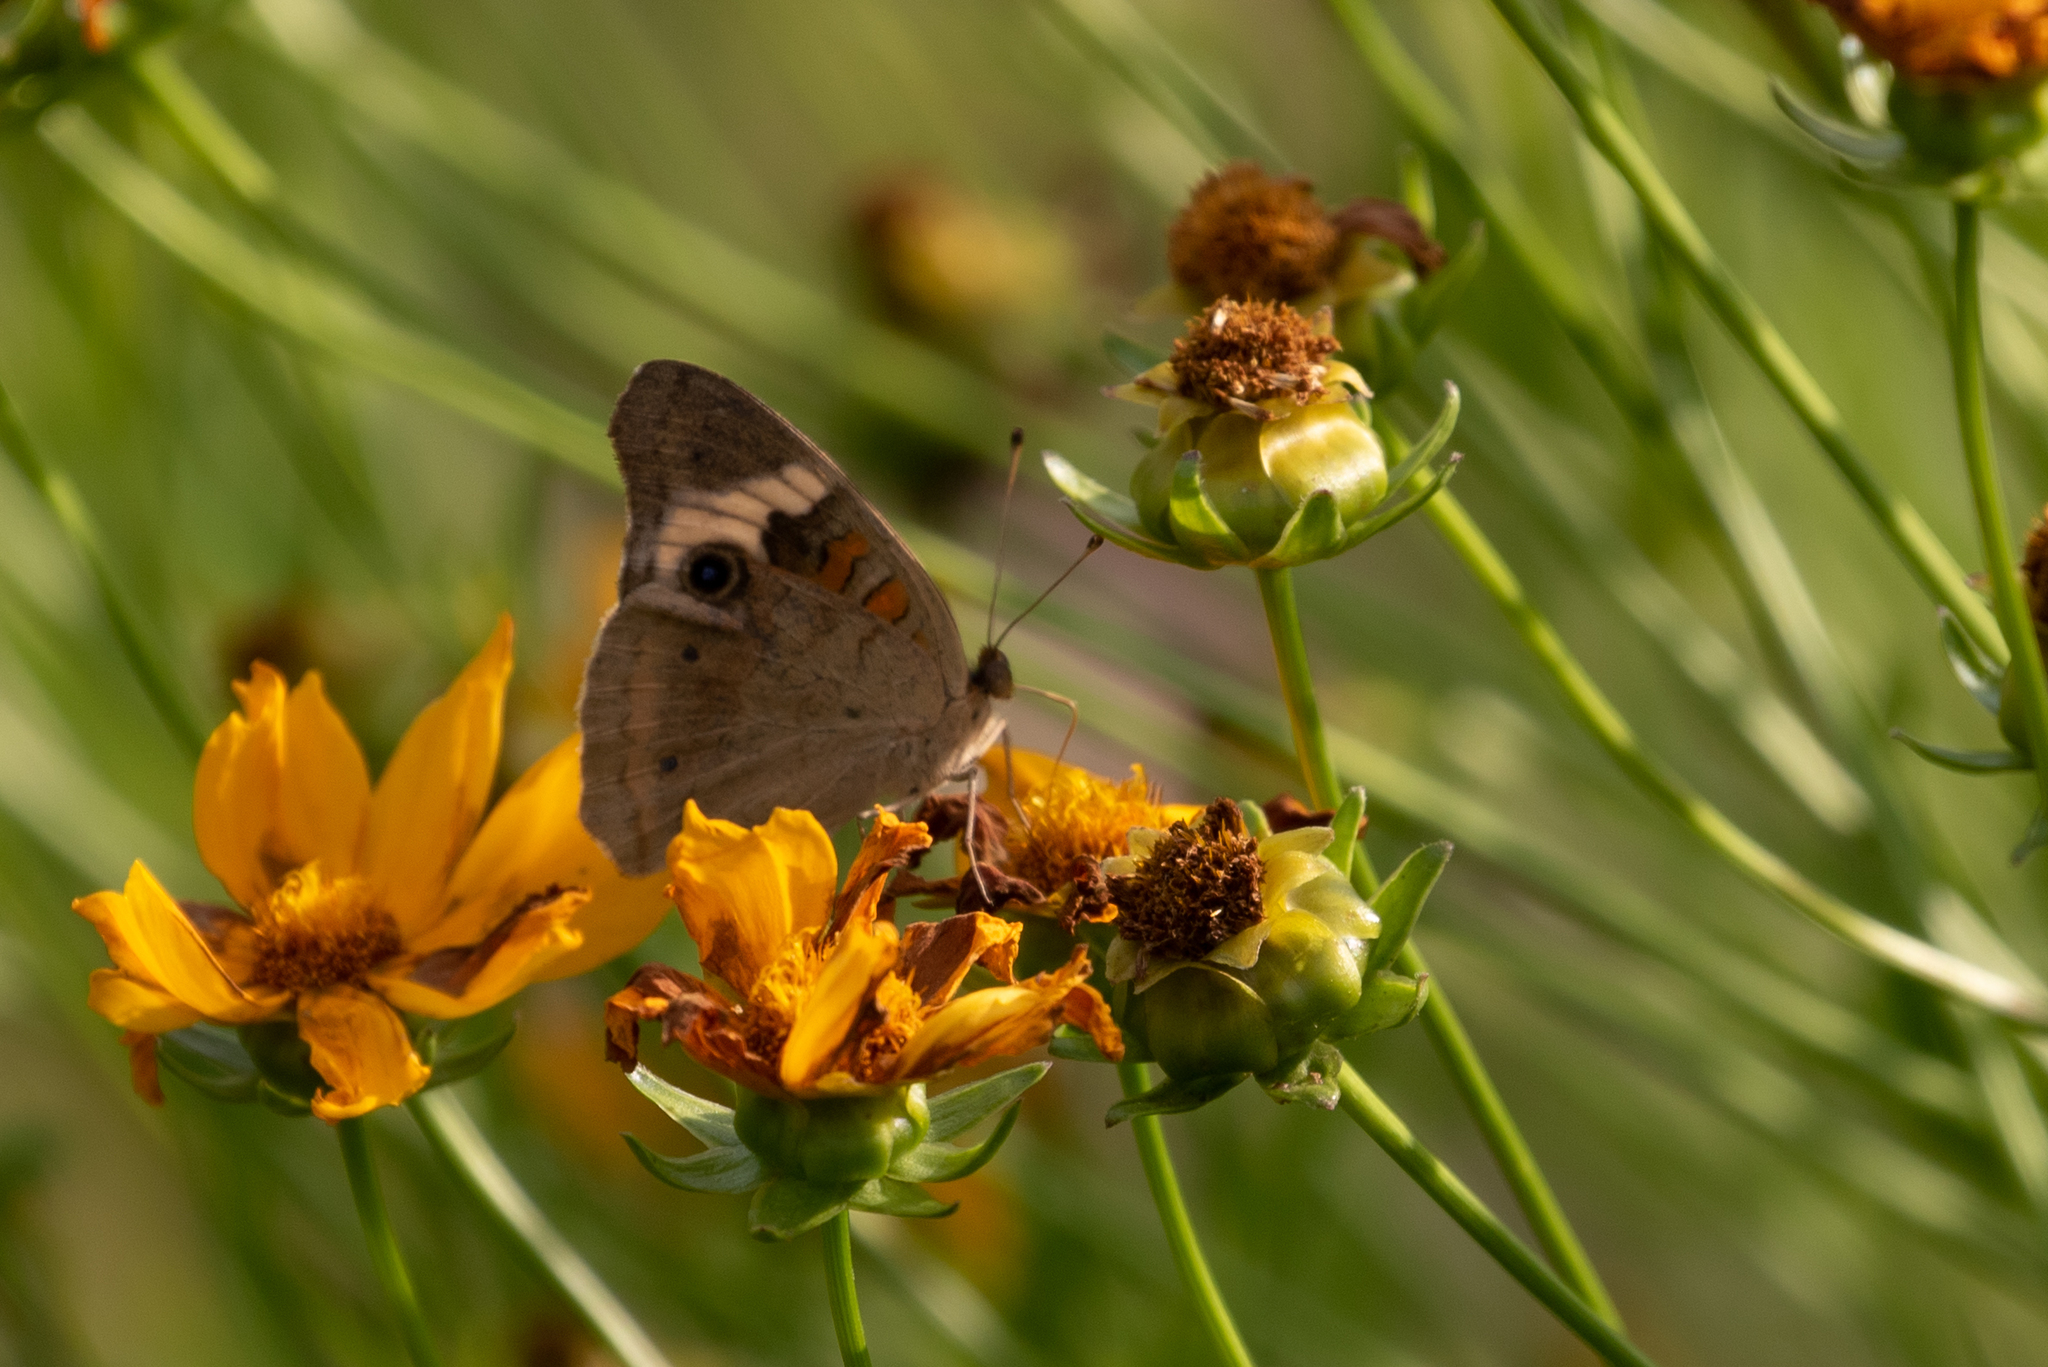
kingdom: Animalia
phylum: Arthropoda
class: Insecta
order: Lepidoptera
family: Nymphalidae
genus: Junonia
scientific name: Junonia coenia
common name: Common buckeye
